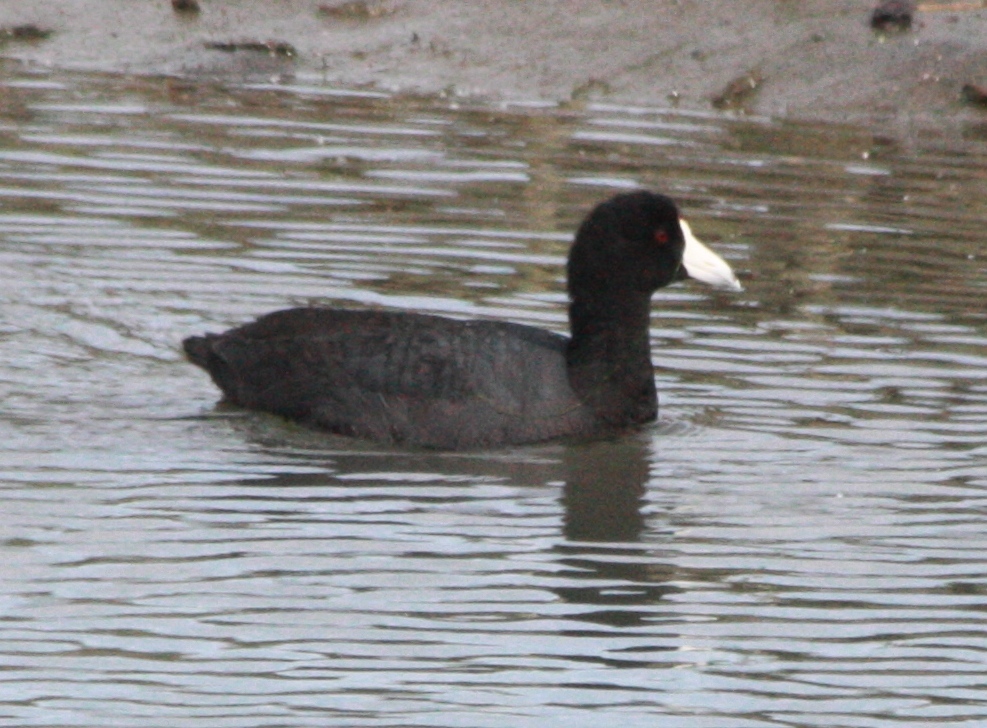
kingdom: Animalia
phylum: Chordata
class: Aves
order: Gruiformes
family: Rallidae
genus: Fulica
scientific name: Fulica americana
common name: American coot
